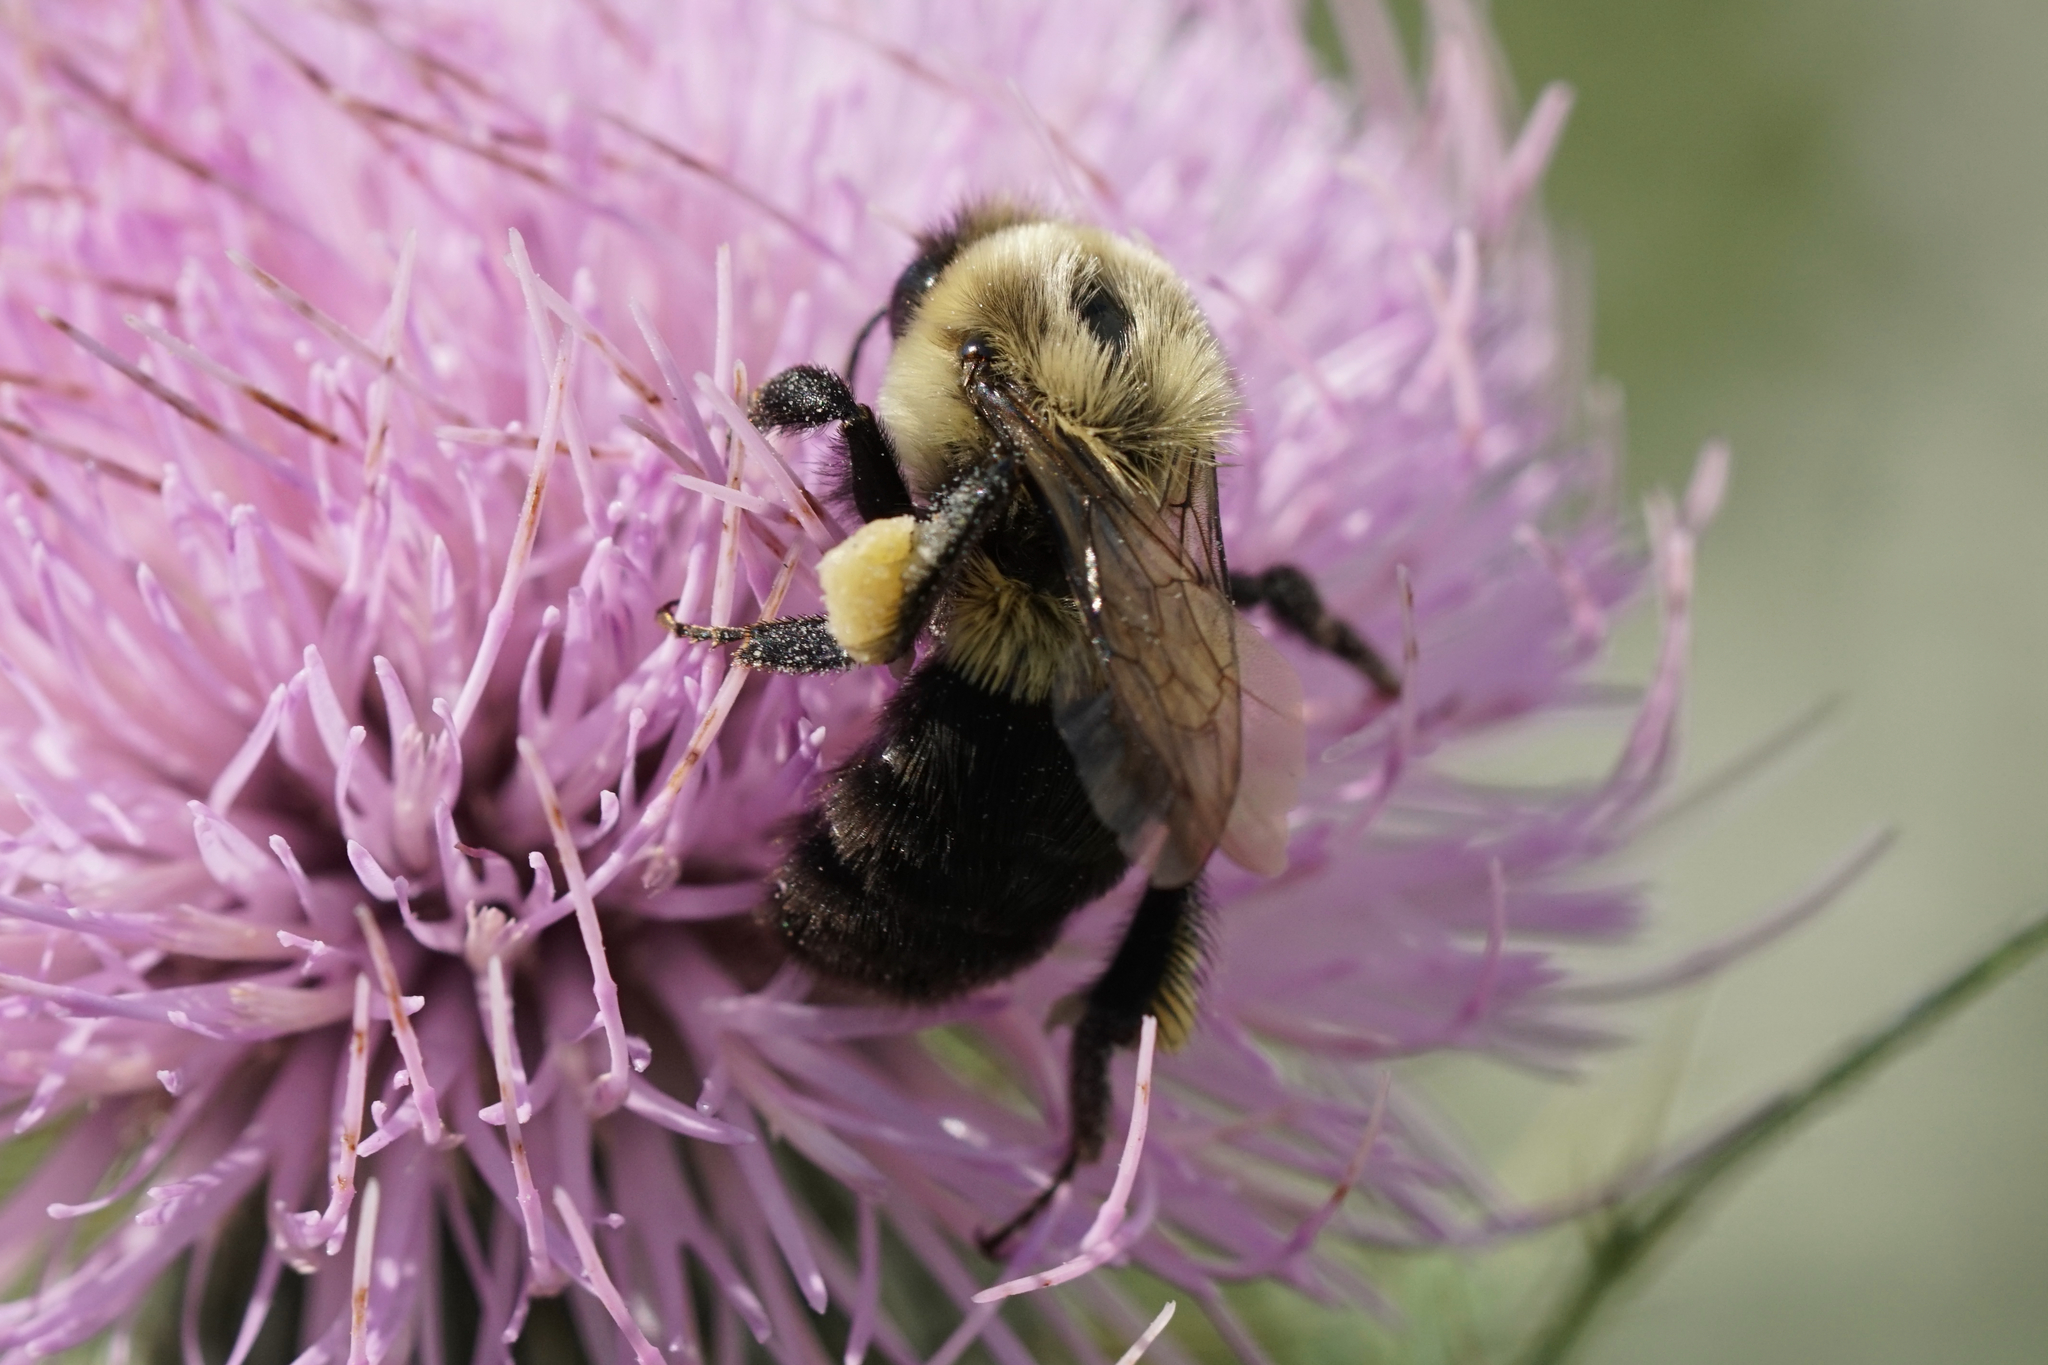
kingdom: Animalia
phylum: Arthropoda
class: Insecta
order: Hymenoptera
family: Apidae
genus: Bombus
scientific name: Bombus impatiens
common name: Common eastern bumble bee
